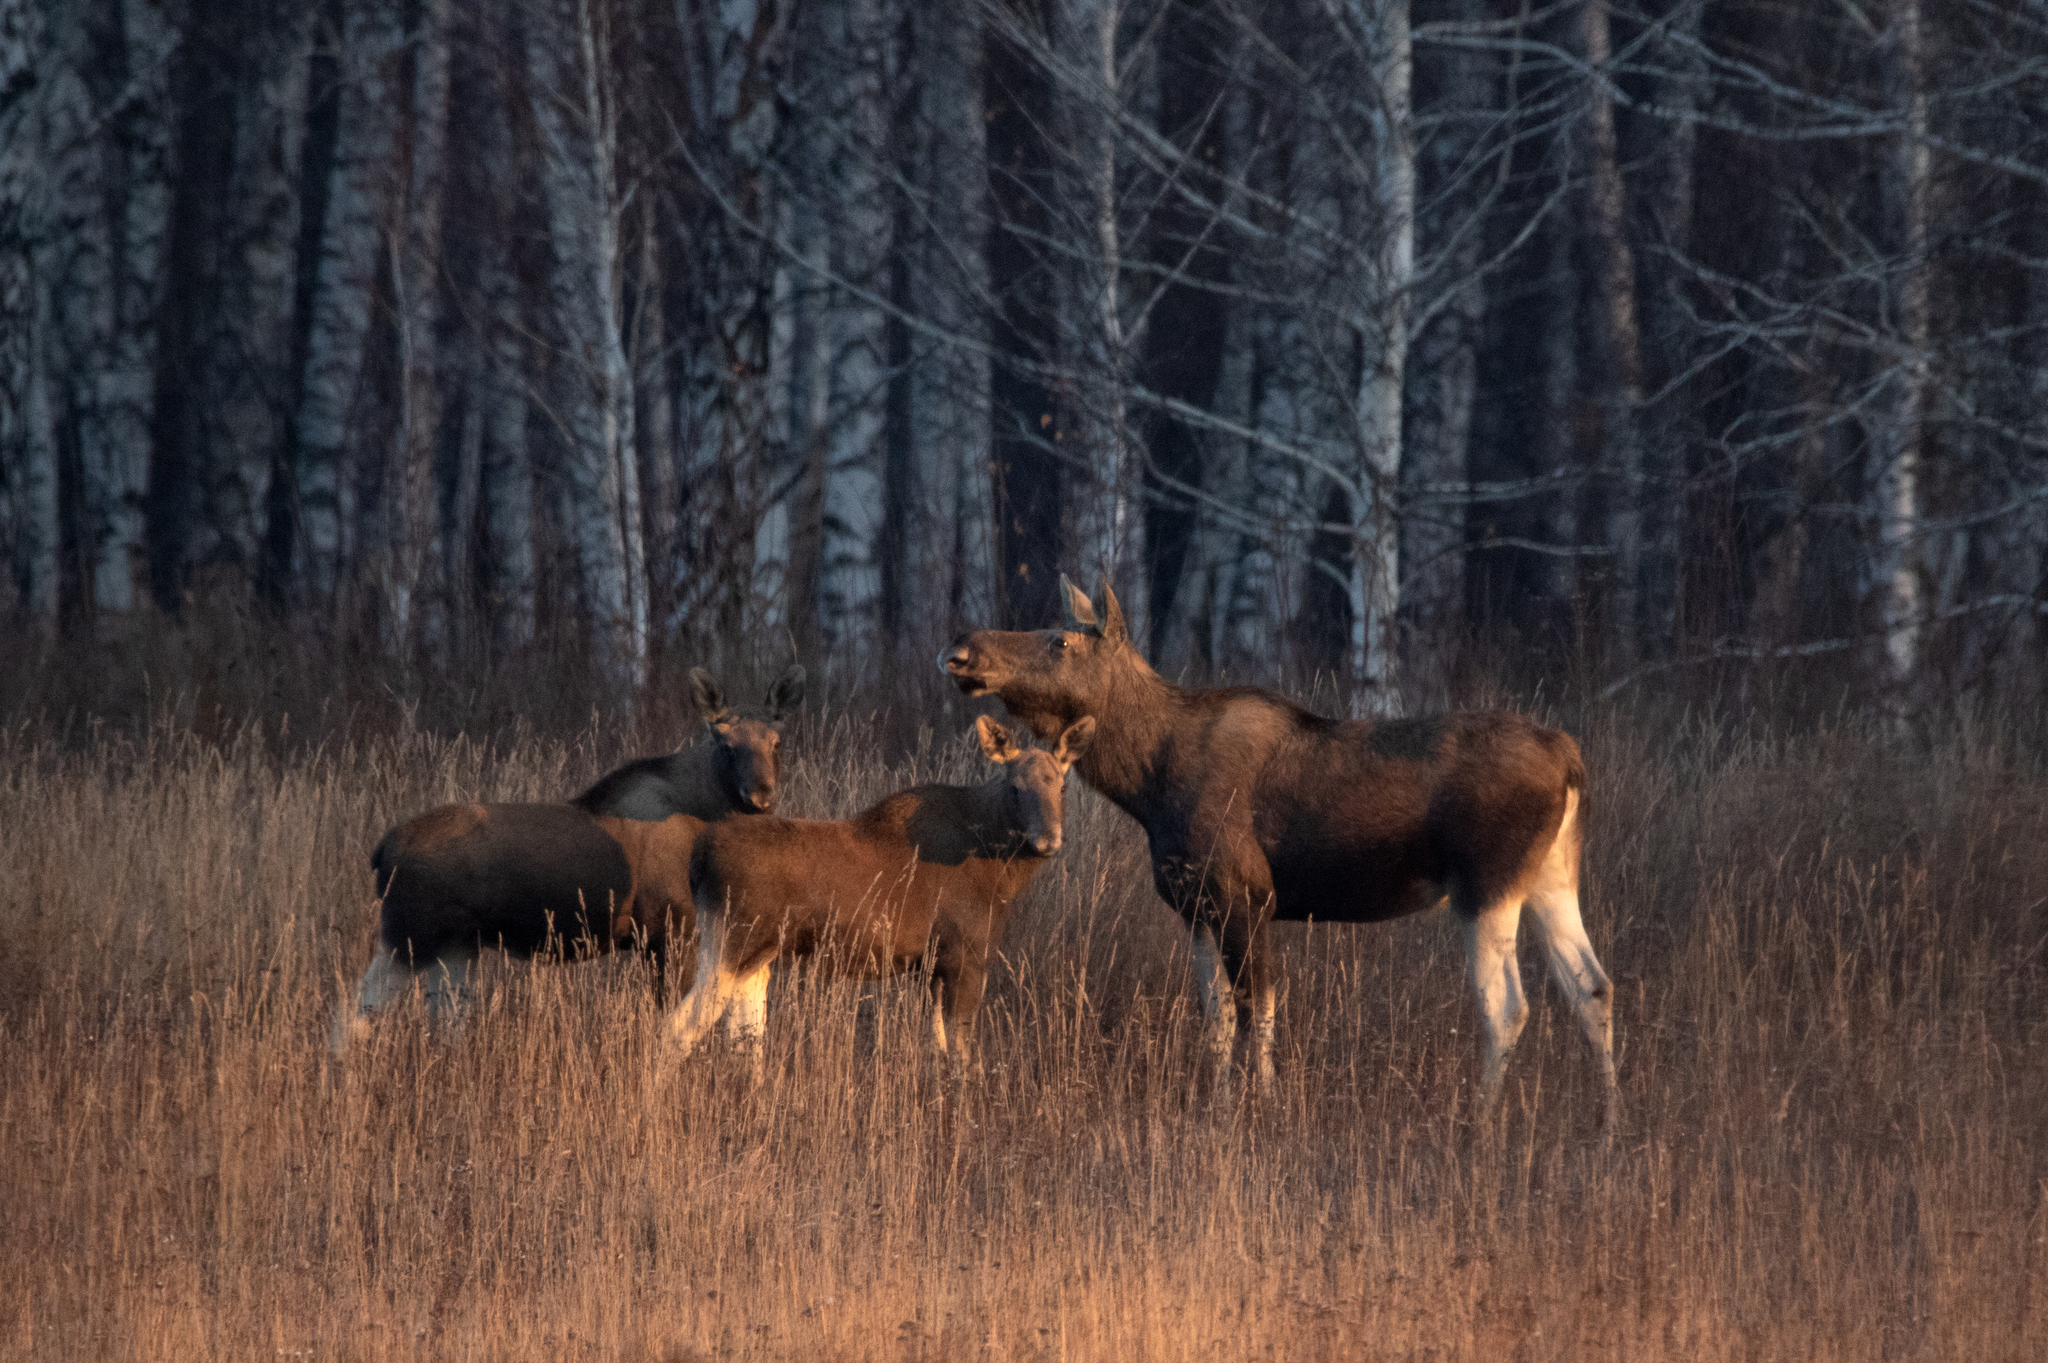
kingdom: Animalia
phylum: Chordata
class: Mammalia
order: Artiodactyla
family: Cervidae
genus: Alces
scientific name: Alces alces
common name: Moose
